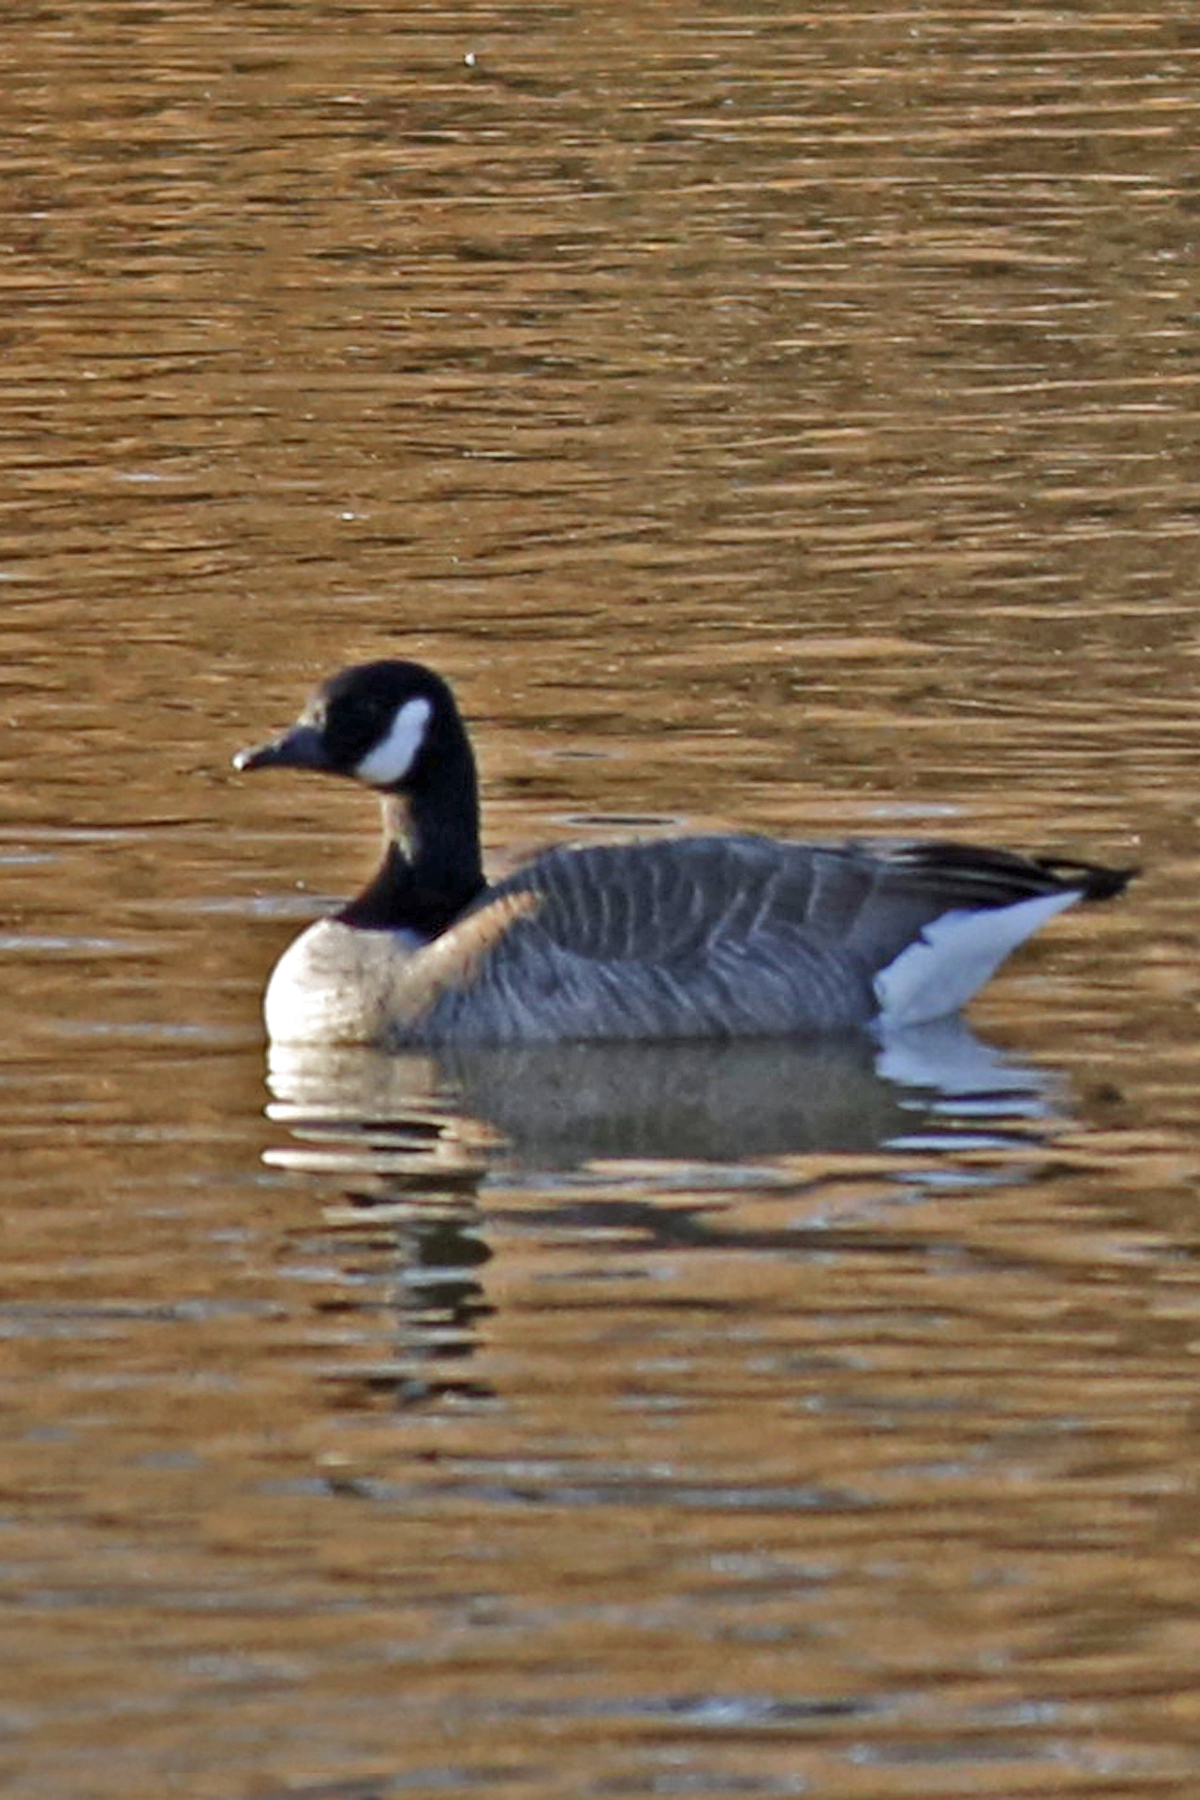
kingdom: Animalia
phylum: Chordata
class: Aves
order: Anseriformes
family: Anatidae
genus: Branta
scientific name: Branta canadensis
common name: Canada goose
